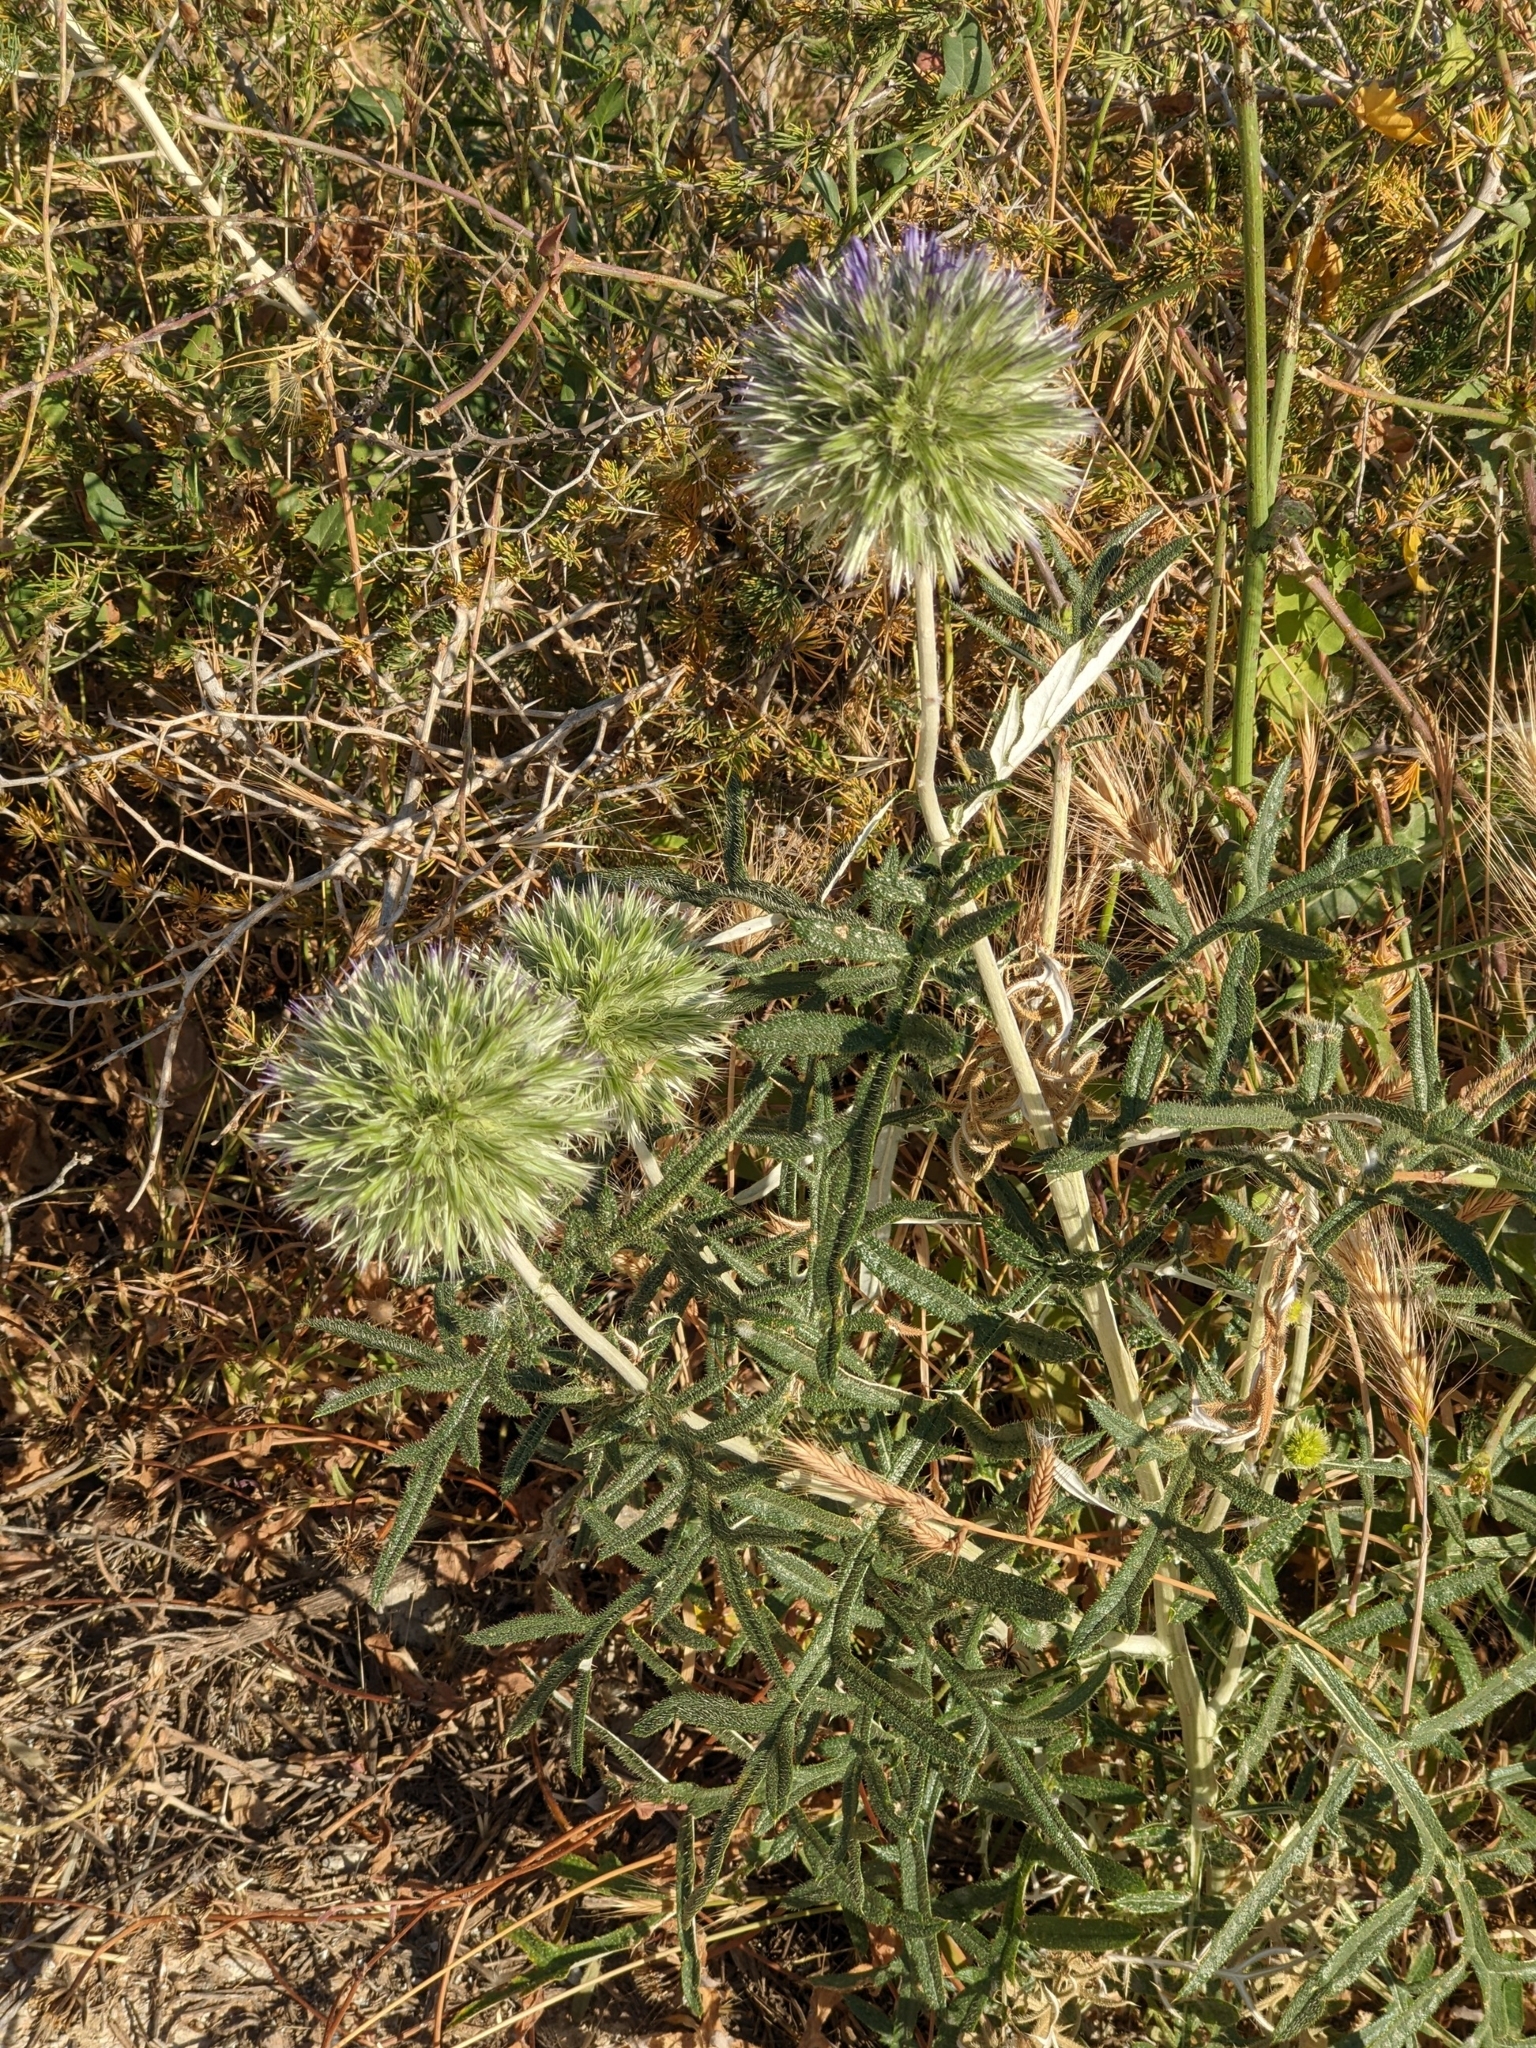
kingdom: Plantae
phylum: Tracheophyta
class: Magnoliopsida
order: Asterales
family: Asteraceae
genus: Echinops
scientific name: Echinops strigosus
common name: Rough-leaf globe thistle
